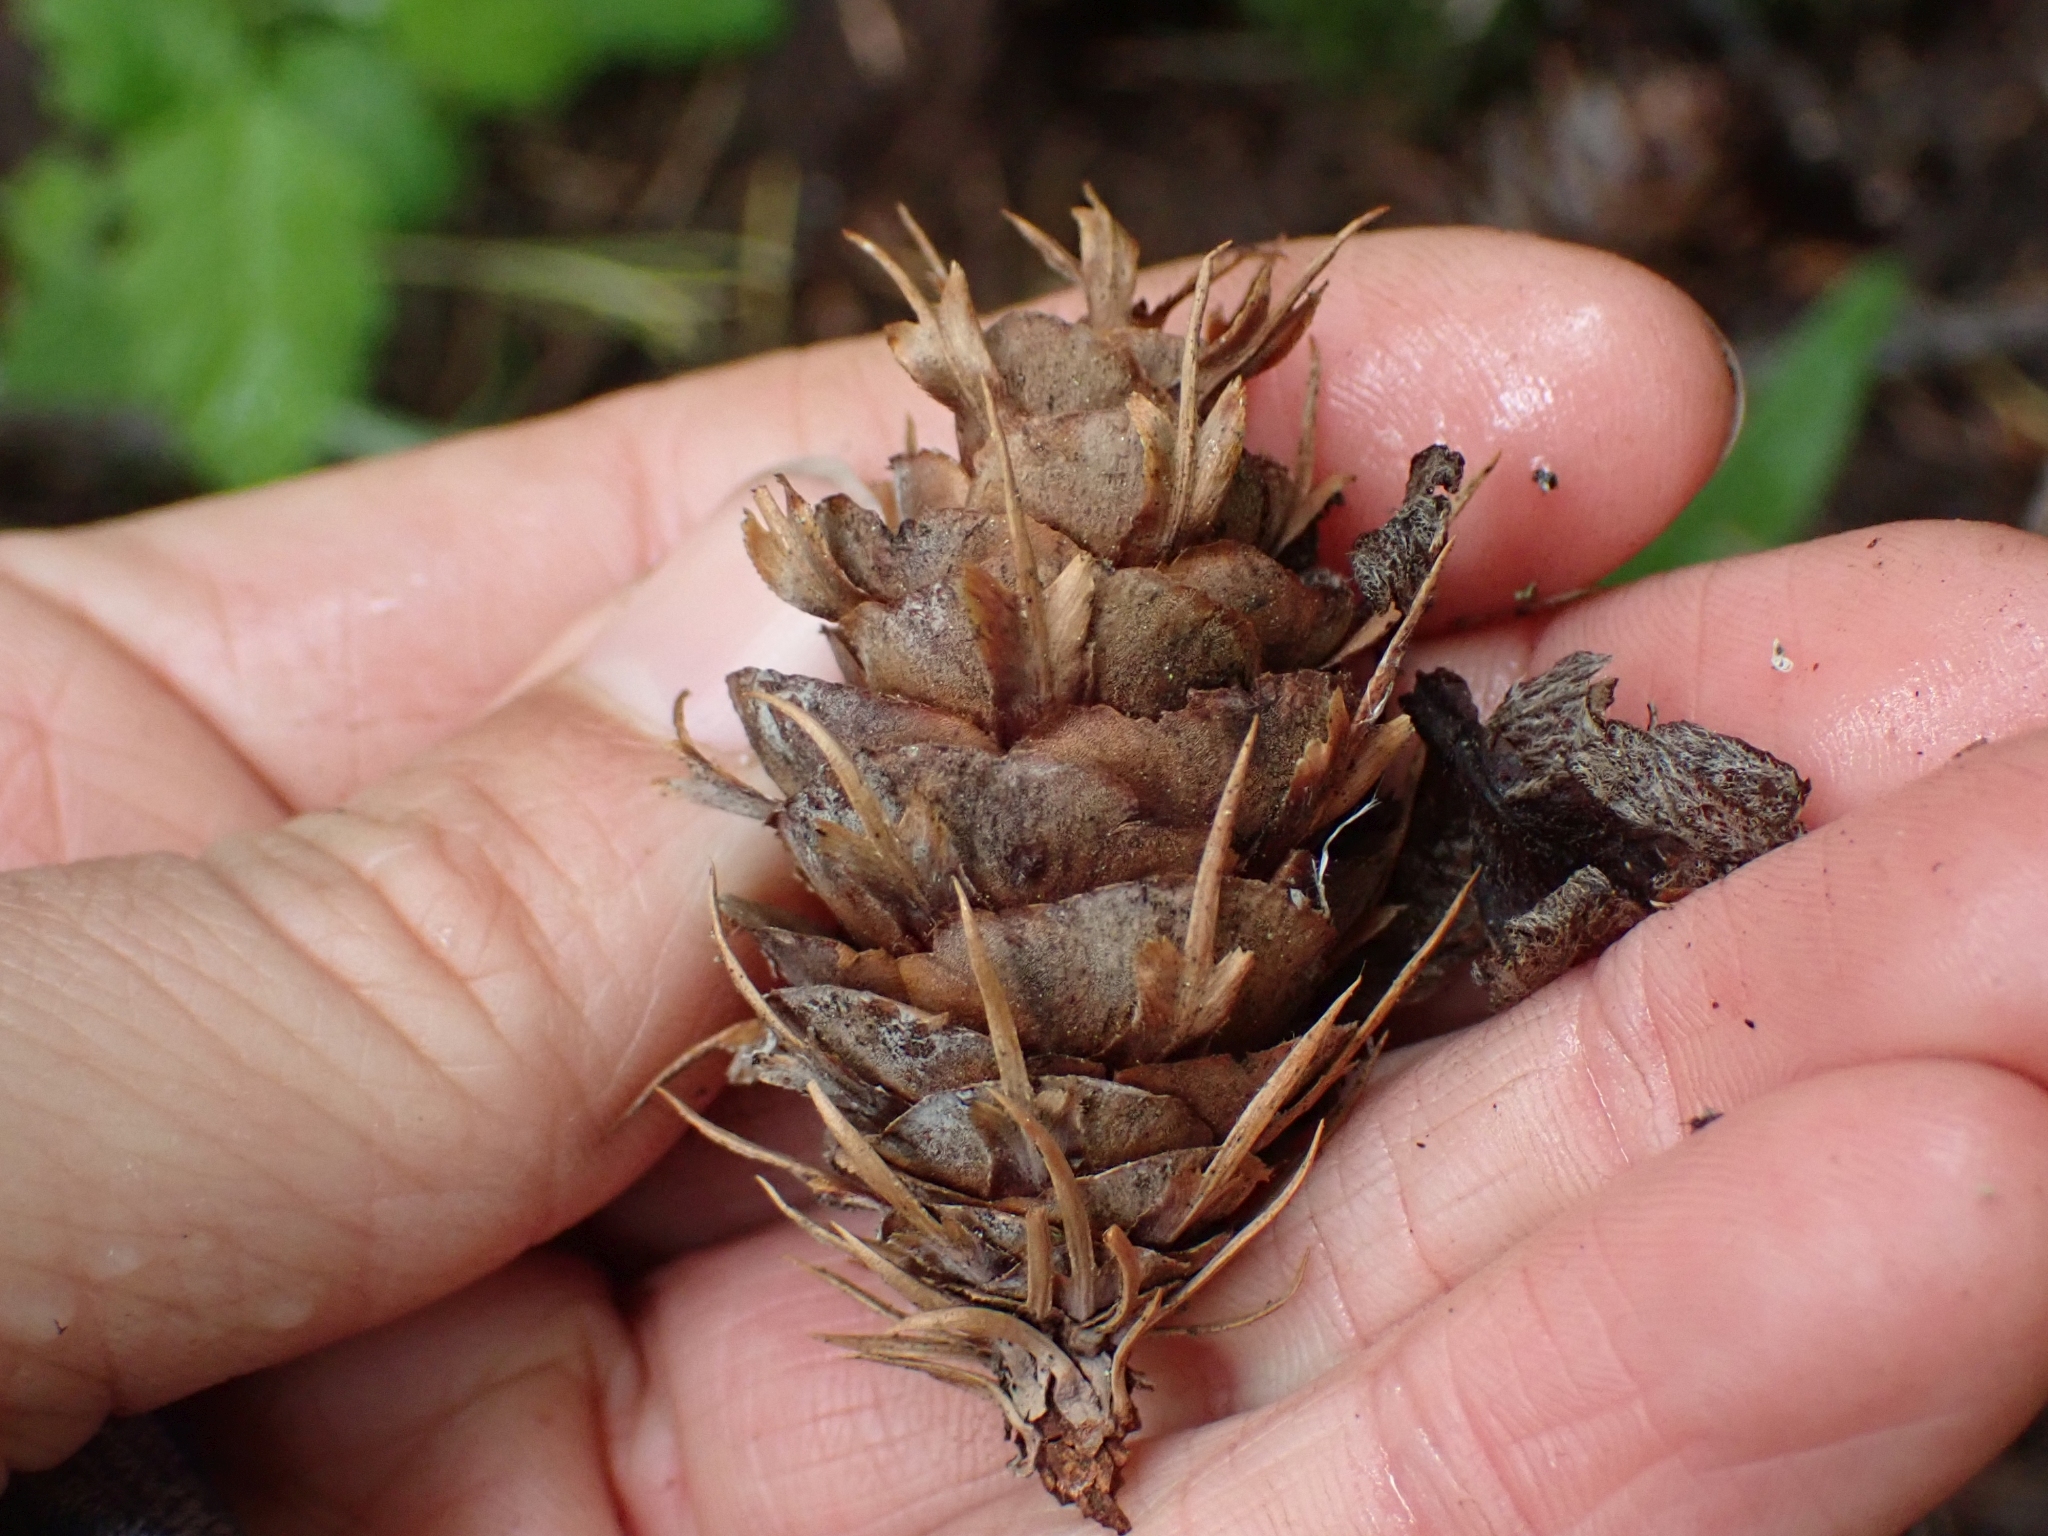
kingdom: Plantae
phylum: Tracheophyta
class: Pinopsida
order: Pinales
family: Pinaceae
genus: Pseudotsuga
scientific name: Pseudotsuga menziesii
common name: Douglas fir
